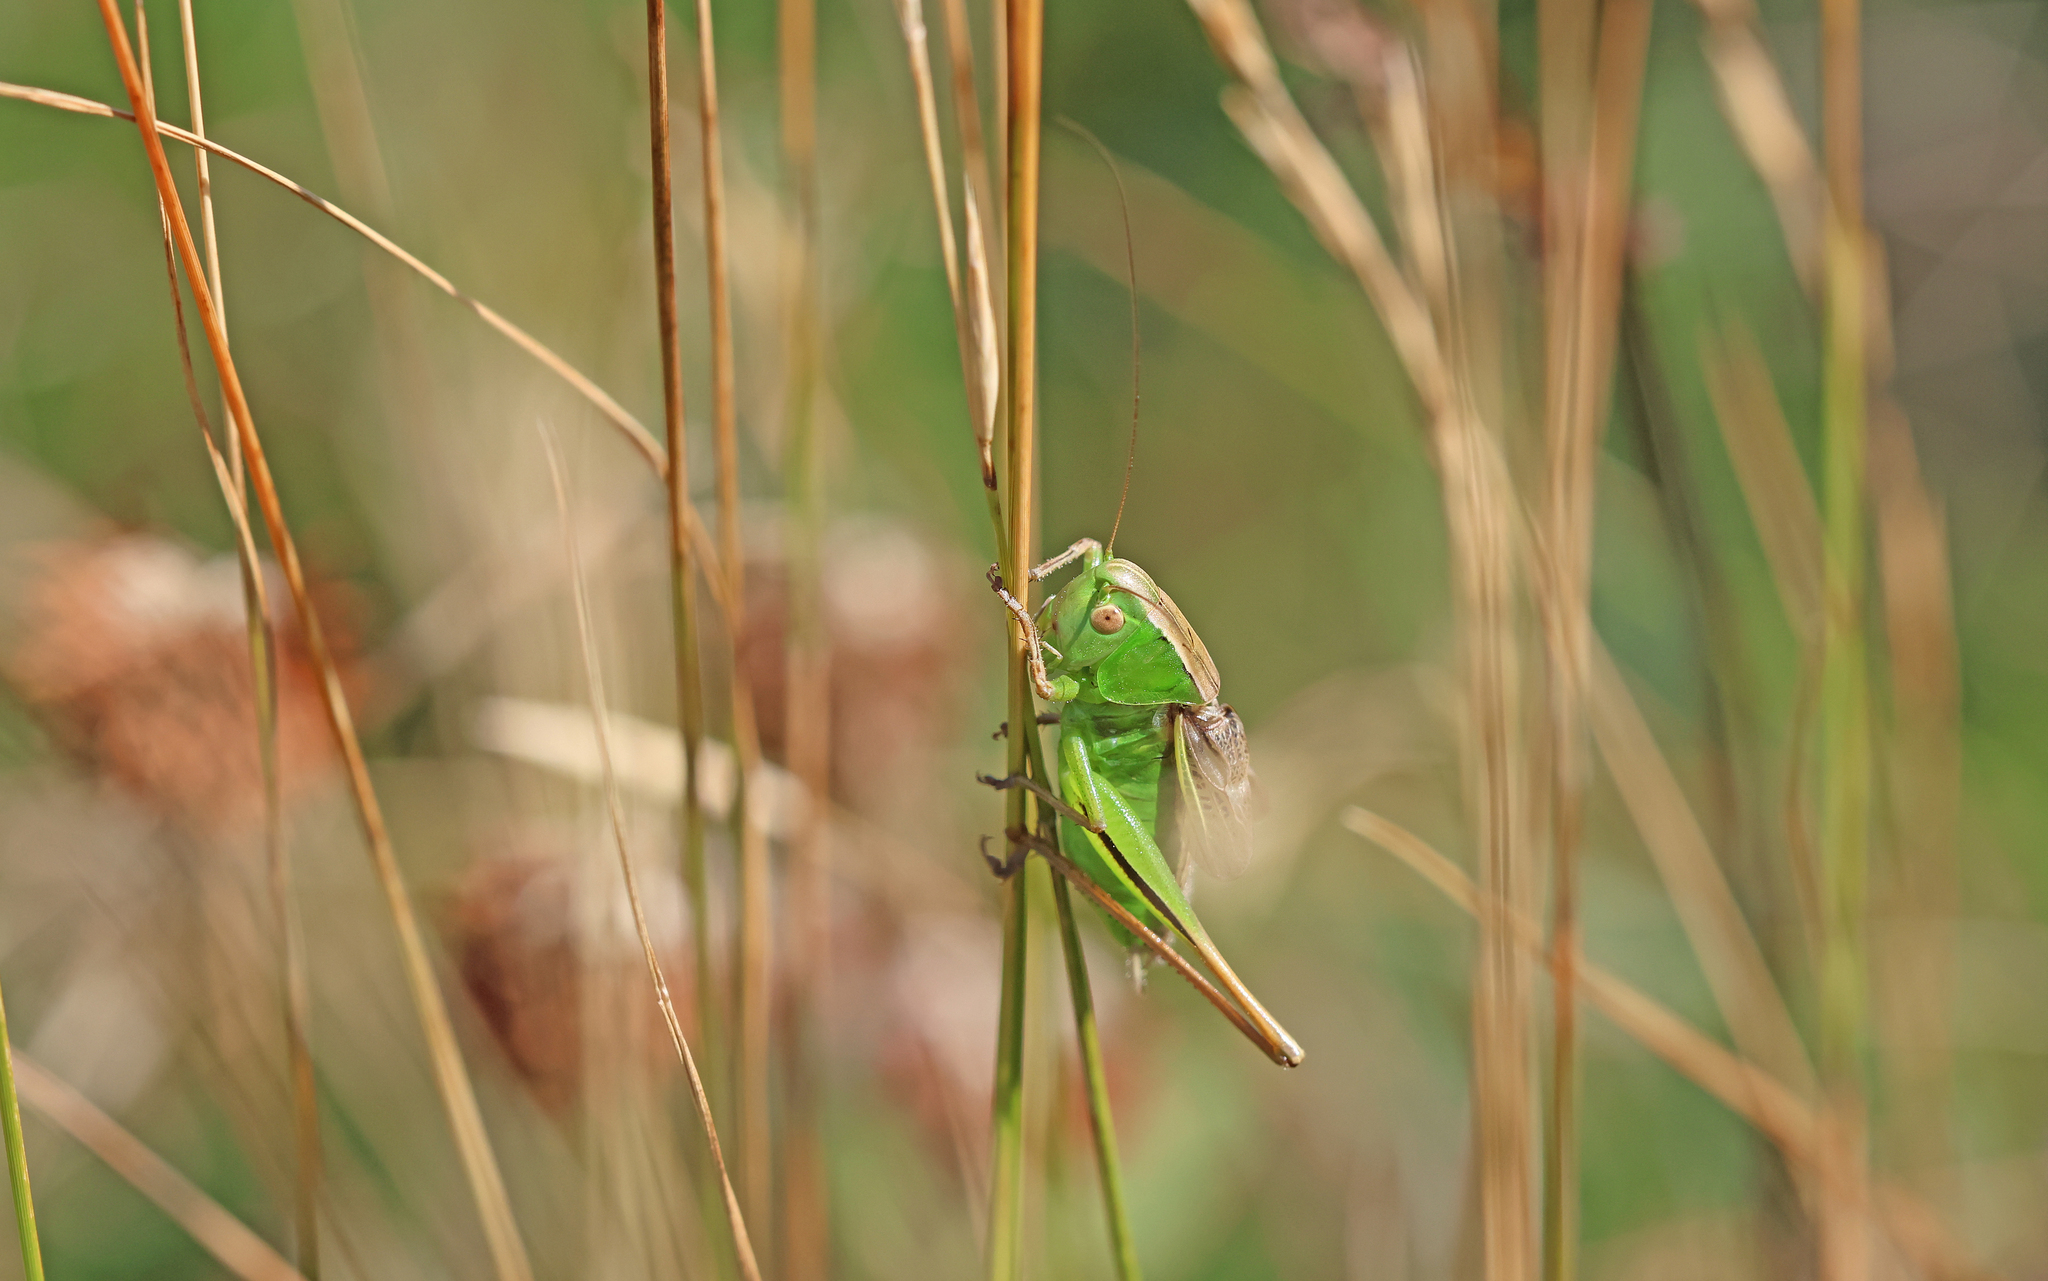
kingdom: Animalia
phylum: Arthropoda
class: Insecta
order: Orthoptera
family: Tettigoniidae
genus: Bicolorana
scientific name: Bicolorana kraussi
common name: Croatian meadow bush-cricket
